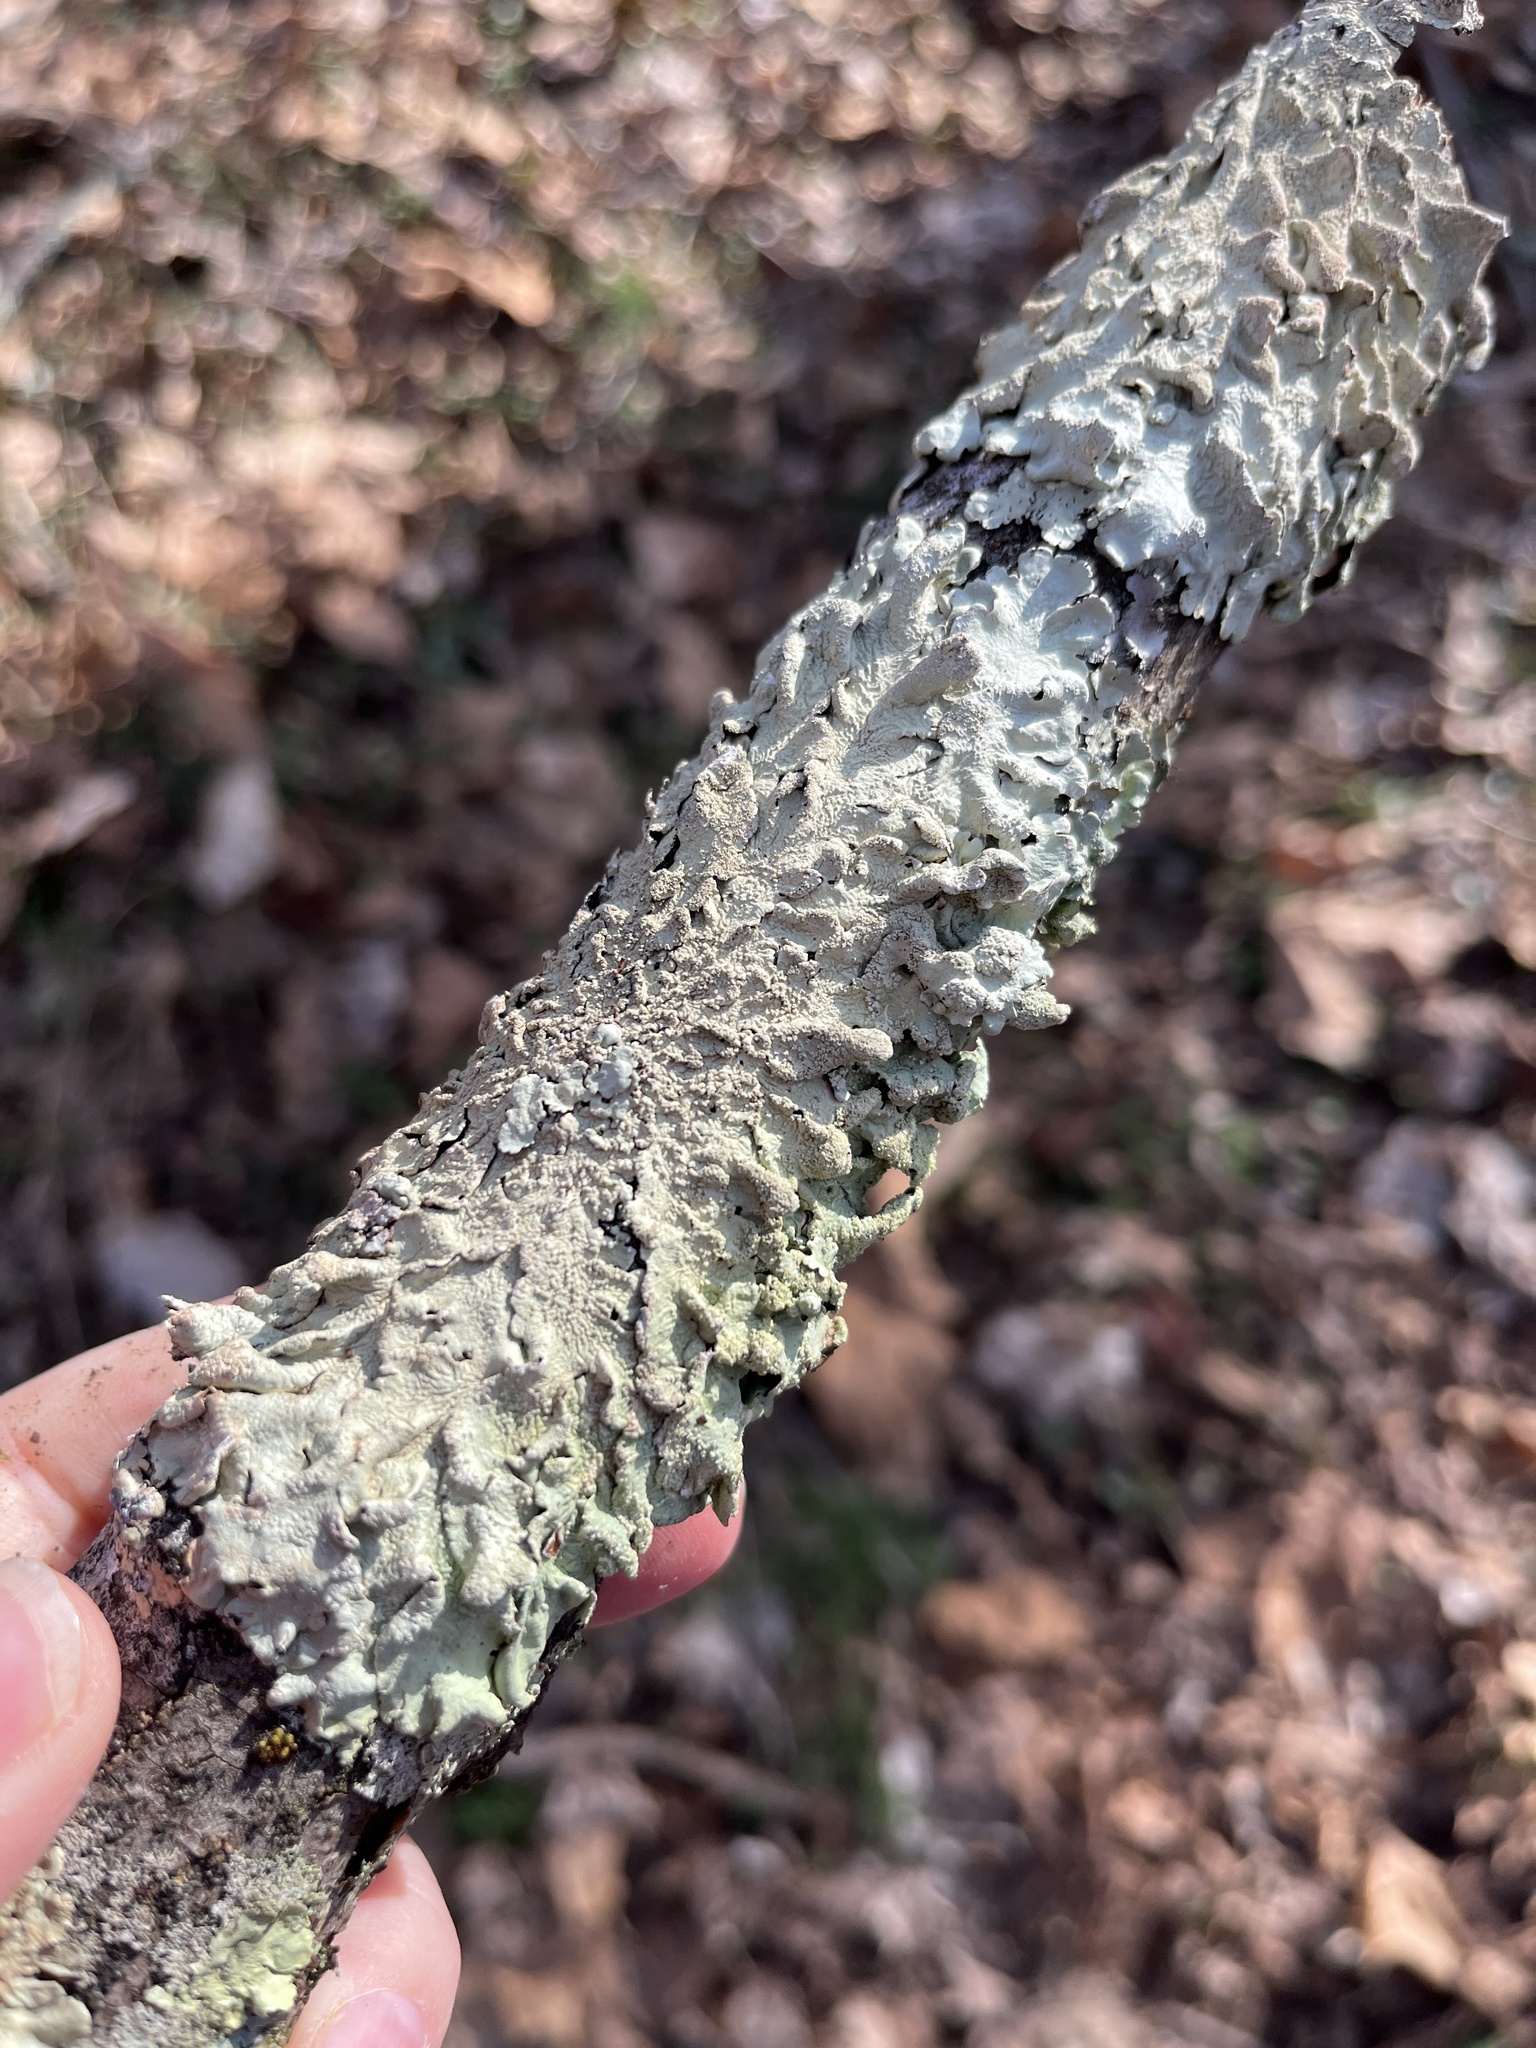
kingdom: Fungi
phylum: Ascomycota
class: Lecanoromycetes
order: Lecanorales
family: Parmeliaceae
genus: Flavoparmelia
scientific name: Flavoparmelia caperata
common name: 40-mile per hour lichen
